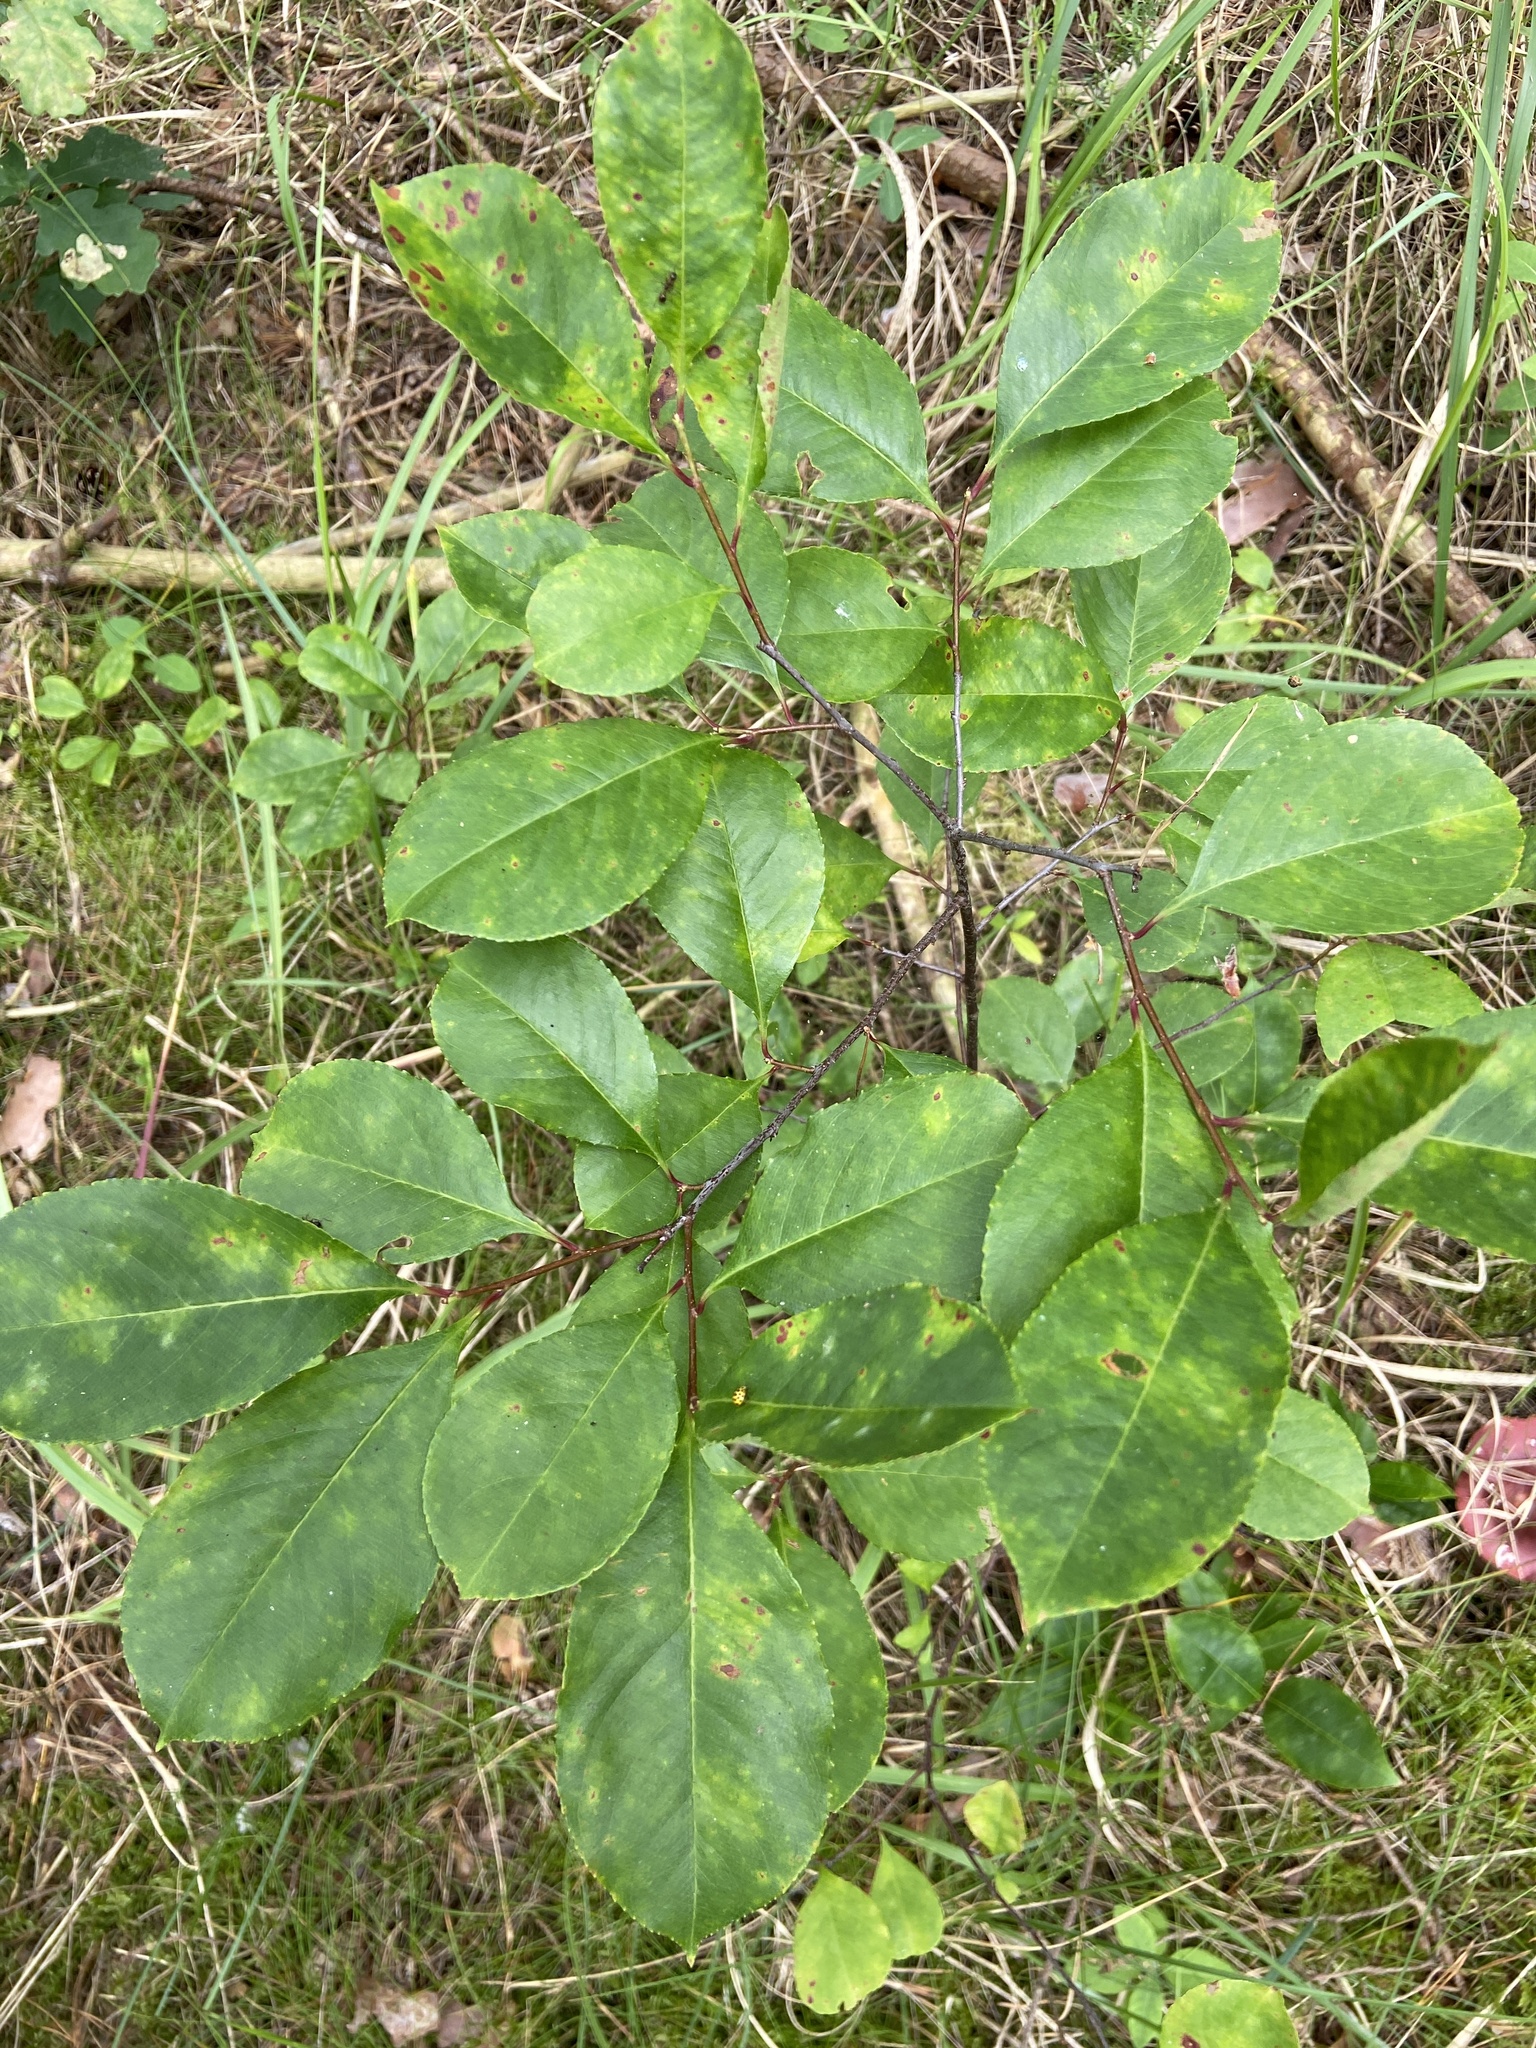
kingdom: Plantae
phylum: Tracheophyta
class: Magnoliopsida
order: Rosales
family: Rosaceae
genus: Prunus
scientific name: Prunus serotina
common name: Black cherry
